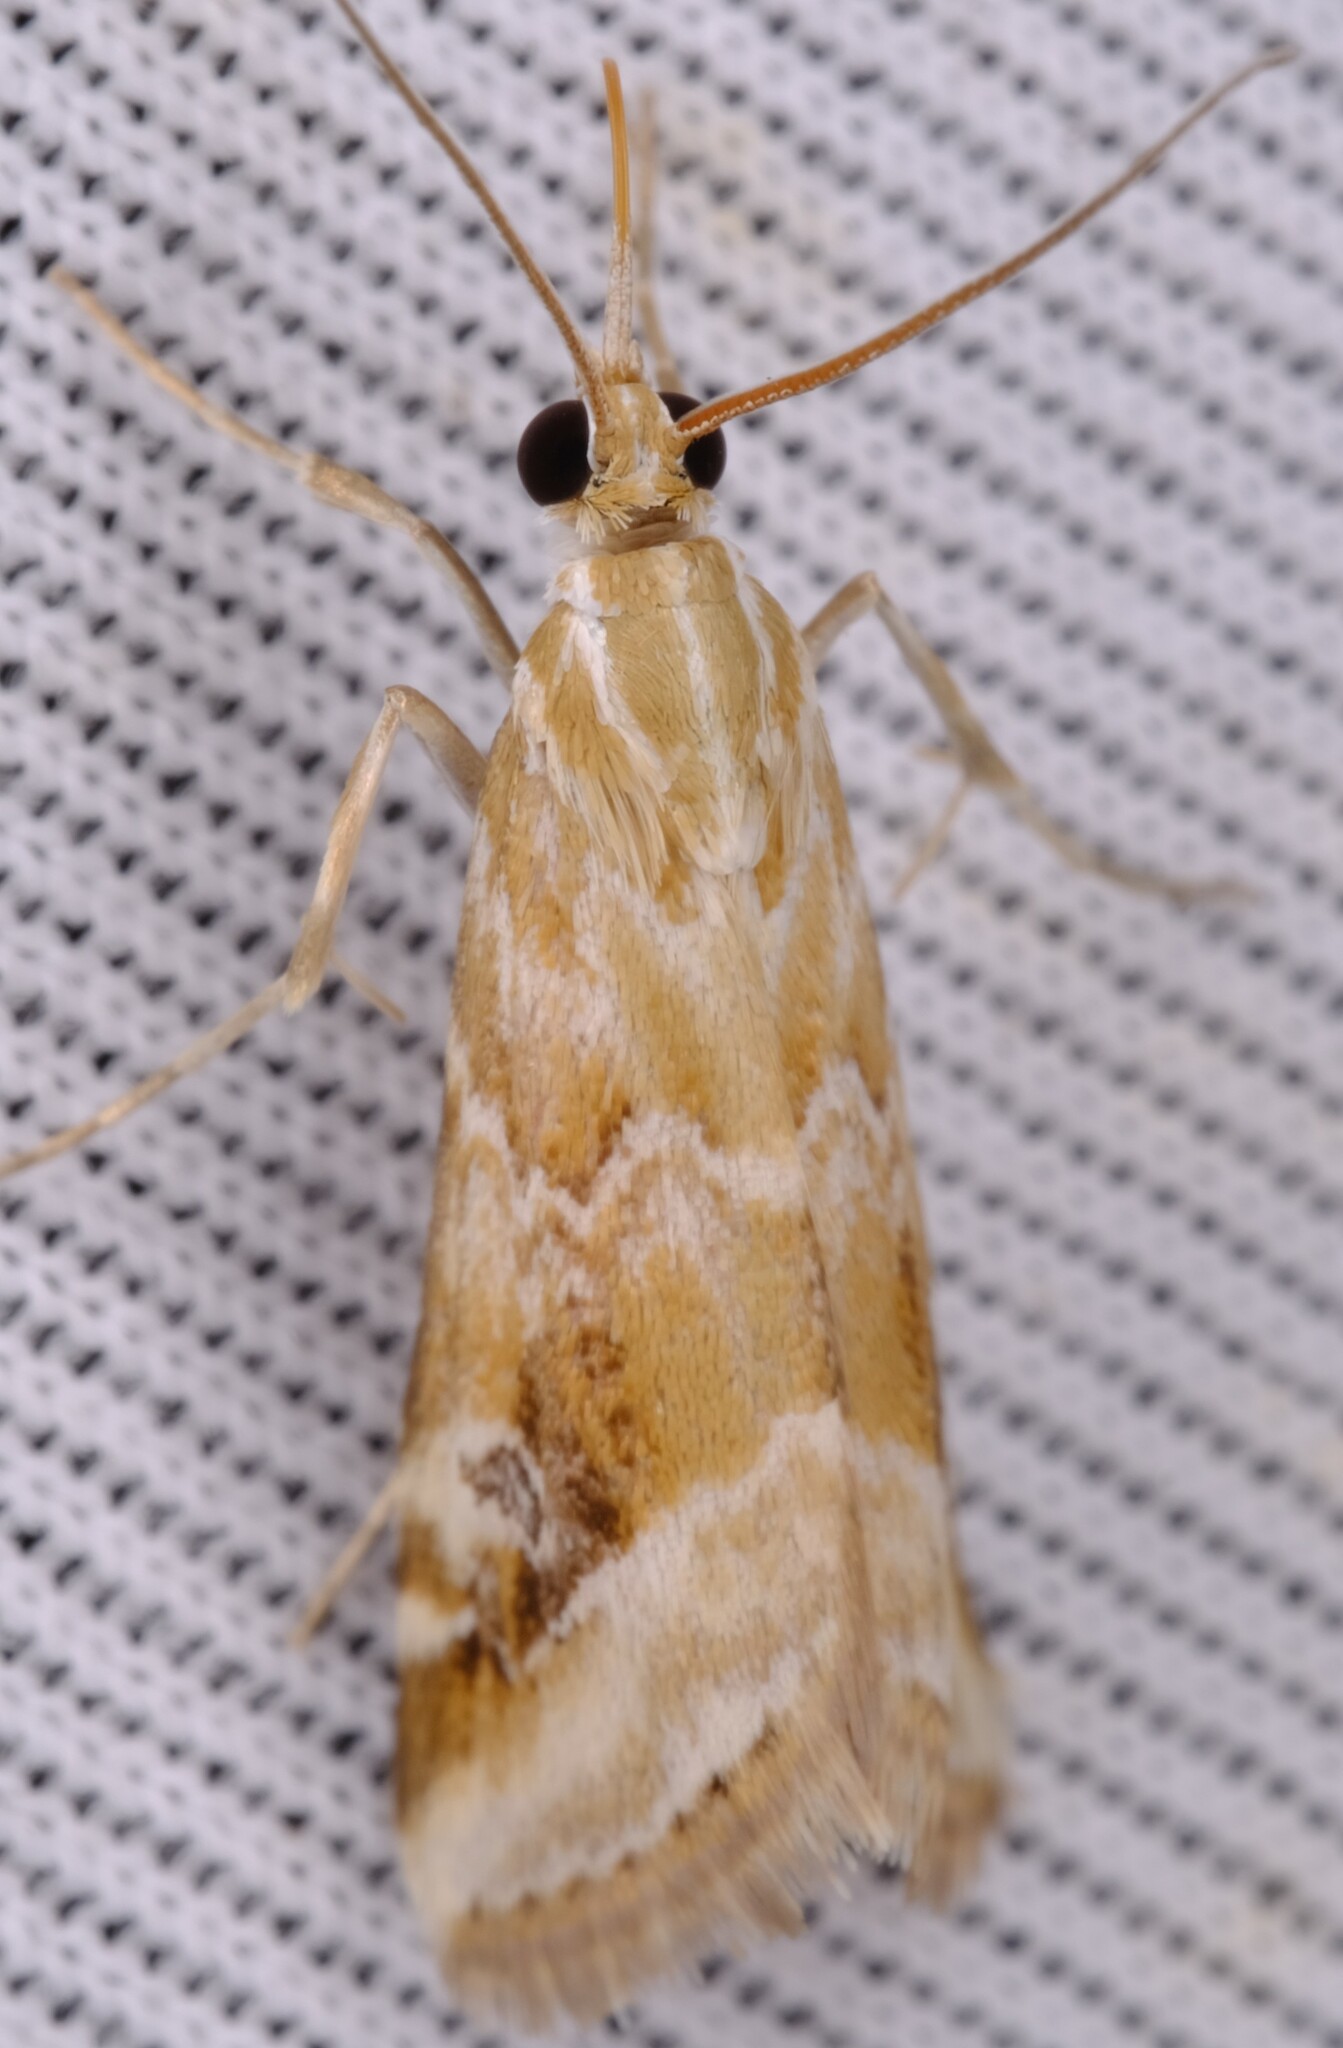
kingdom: Animalia
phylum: Arthropoda
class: Insecta
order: Lepidoptera
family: Crambidae
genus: Hellula
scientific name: Hellula hydralis
